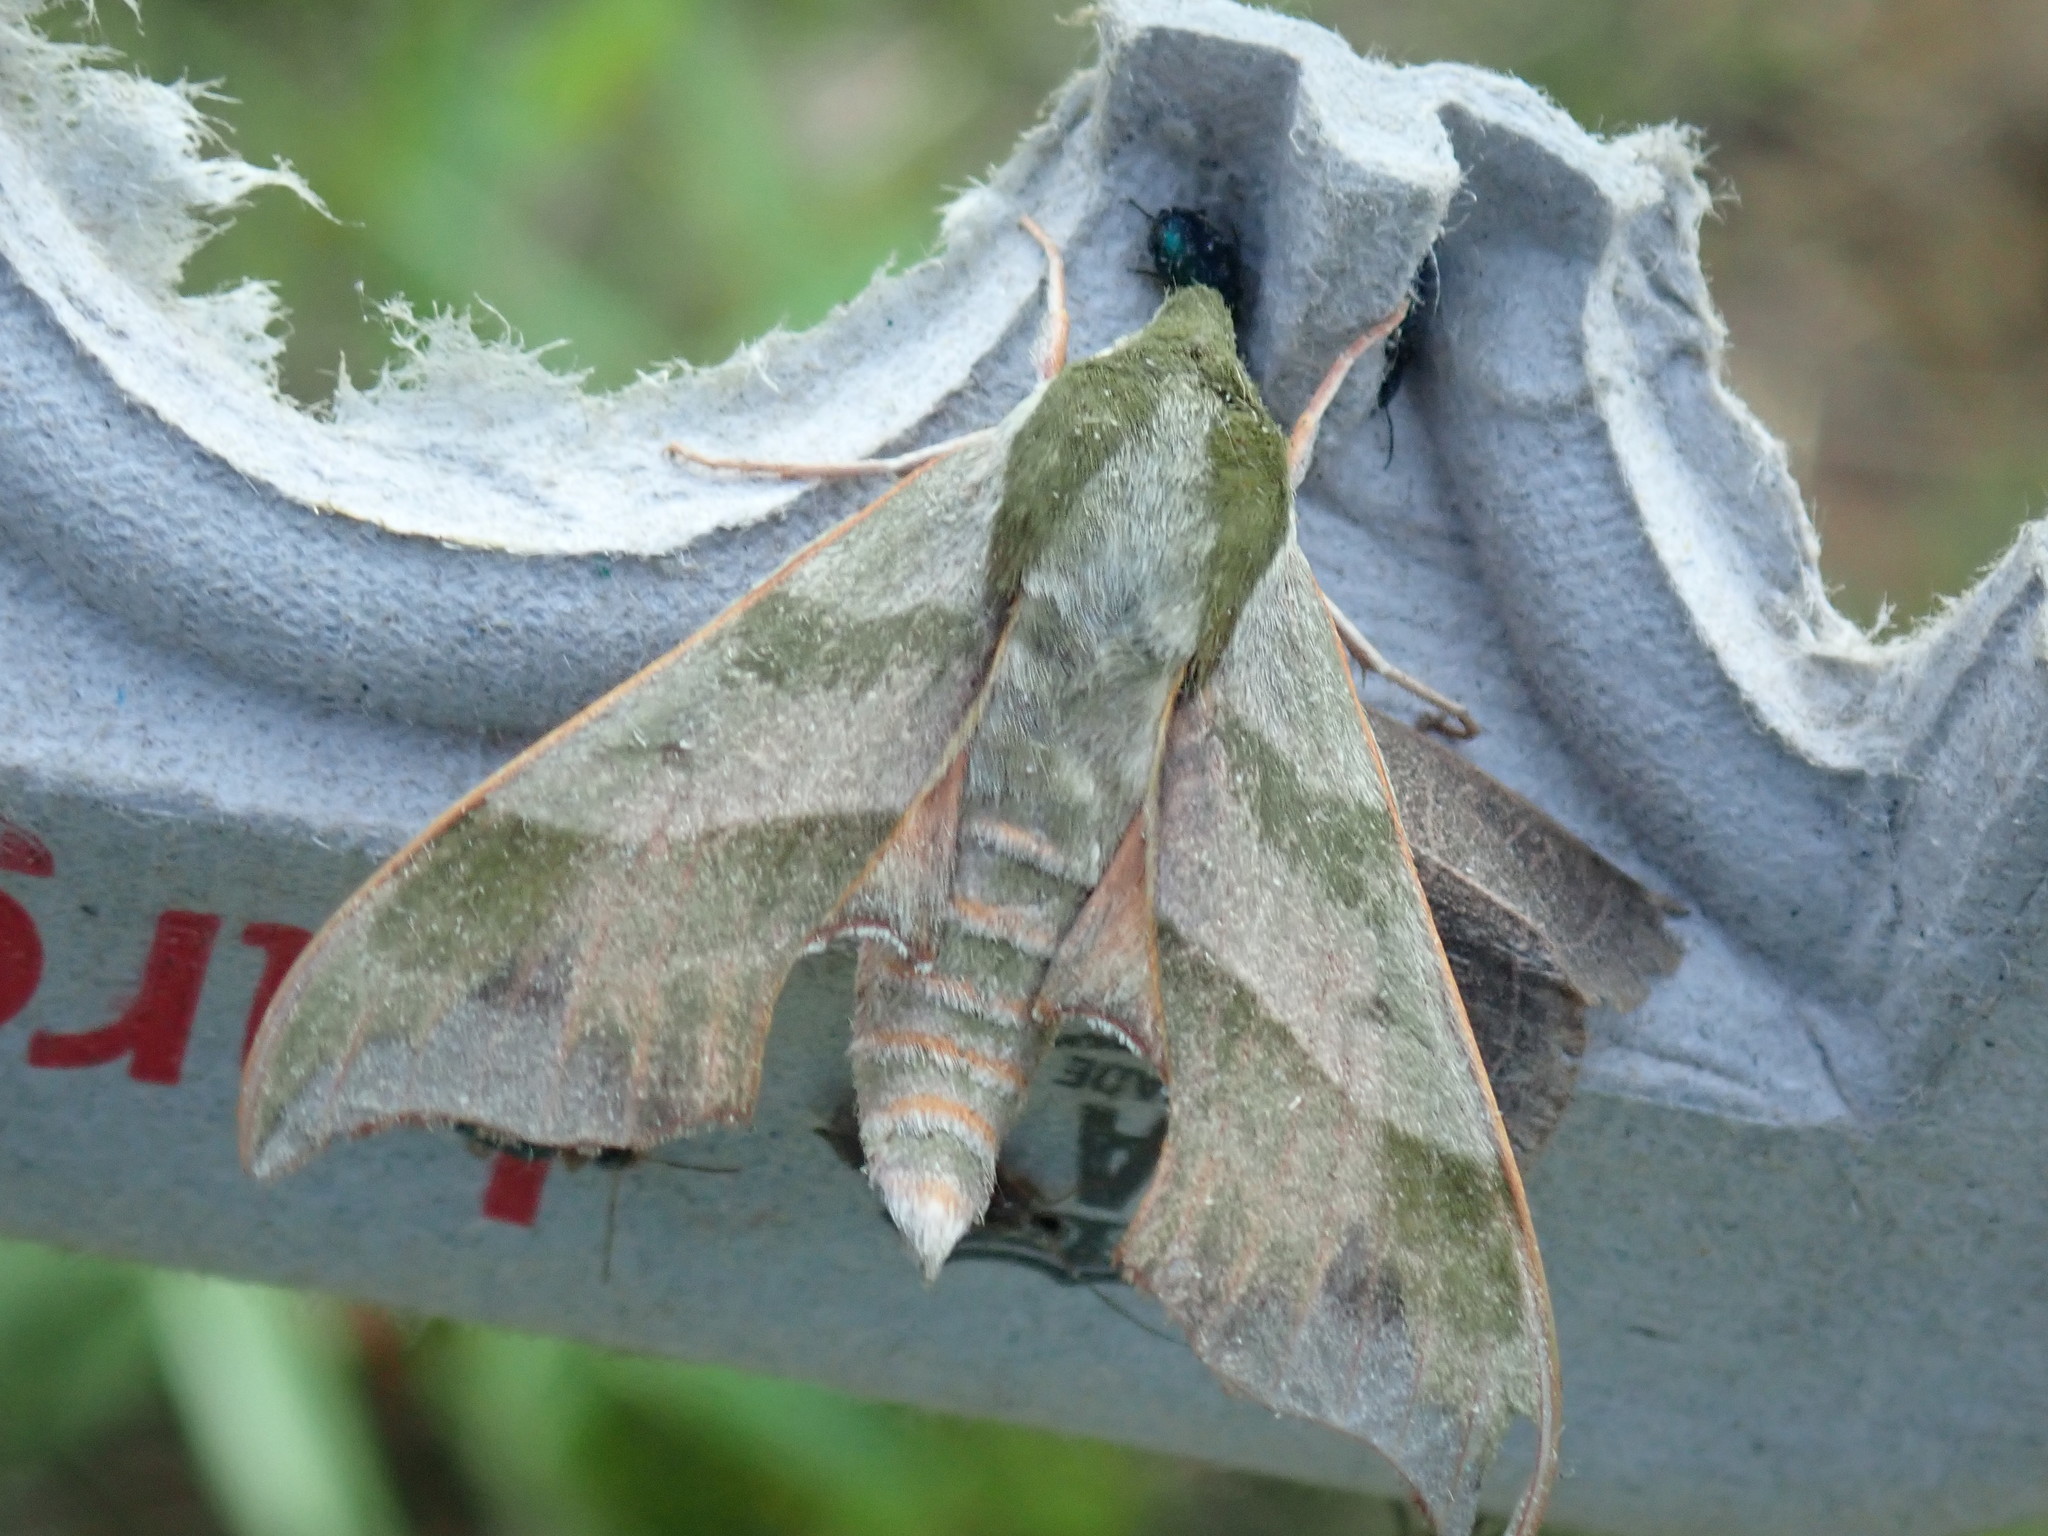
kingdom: Animalia
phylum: Arthropoda
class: Insecta
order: Lepidoptera
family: Sphingidae
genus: Darapsa
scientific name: Darapsa myron
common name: Hog sphinx
